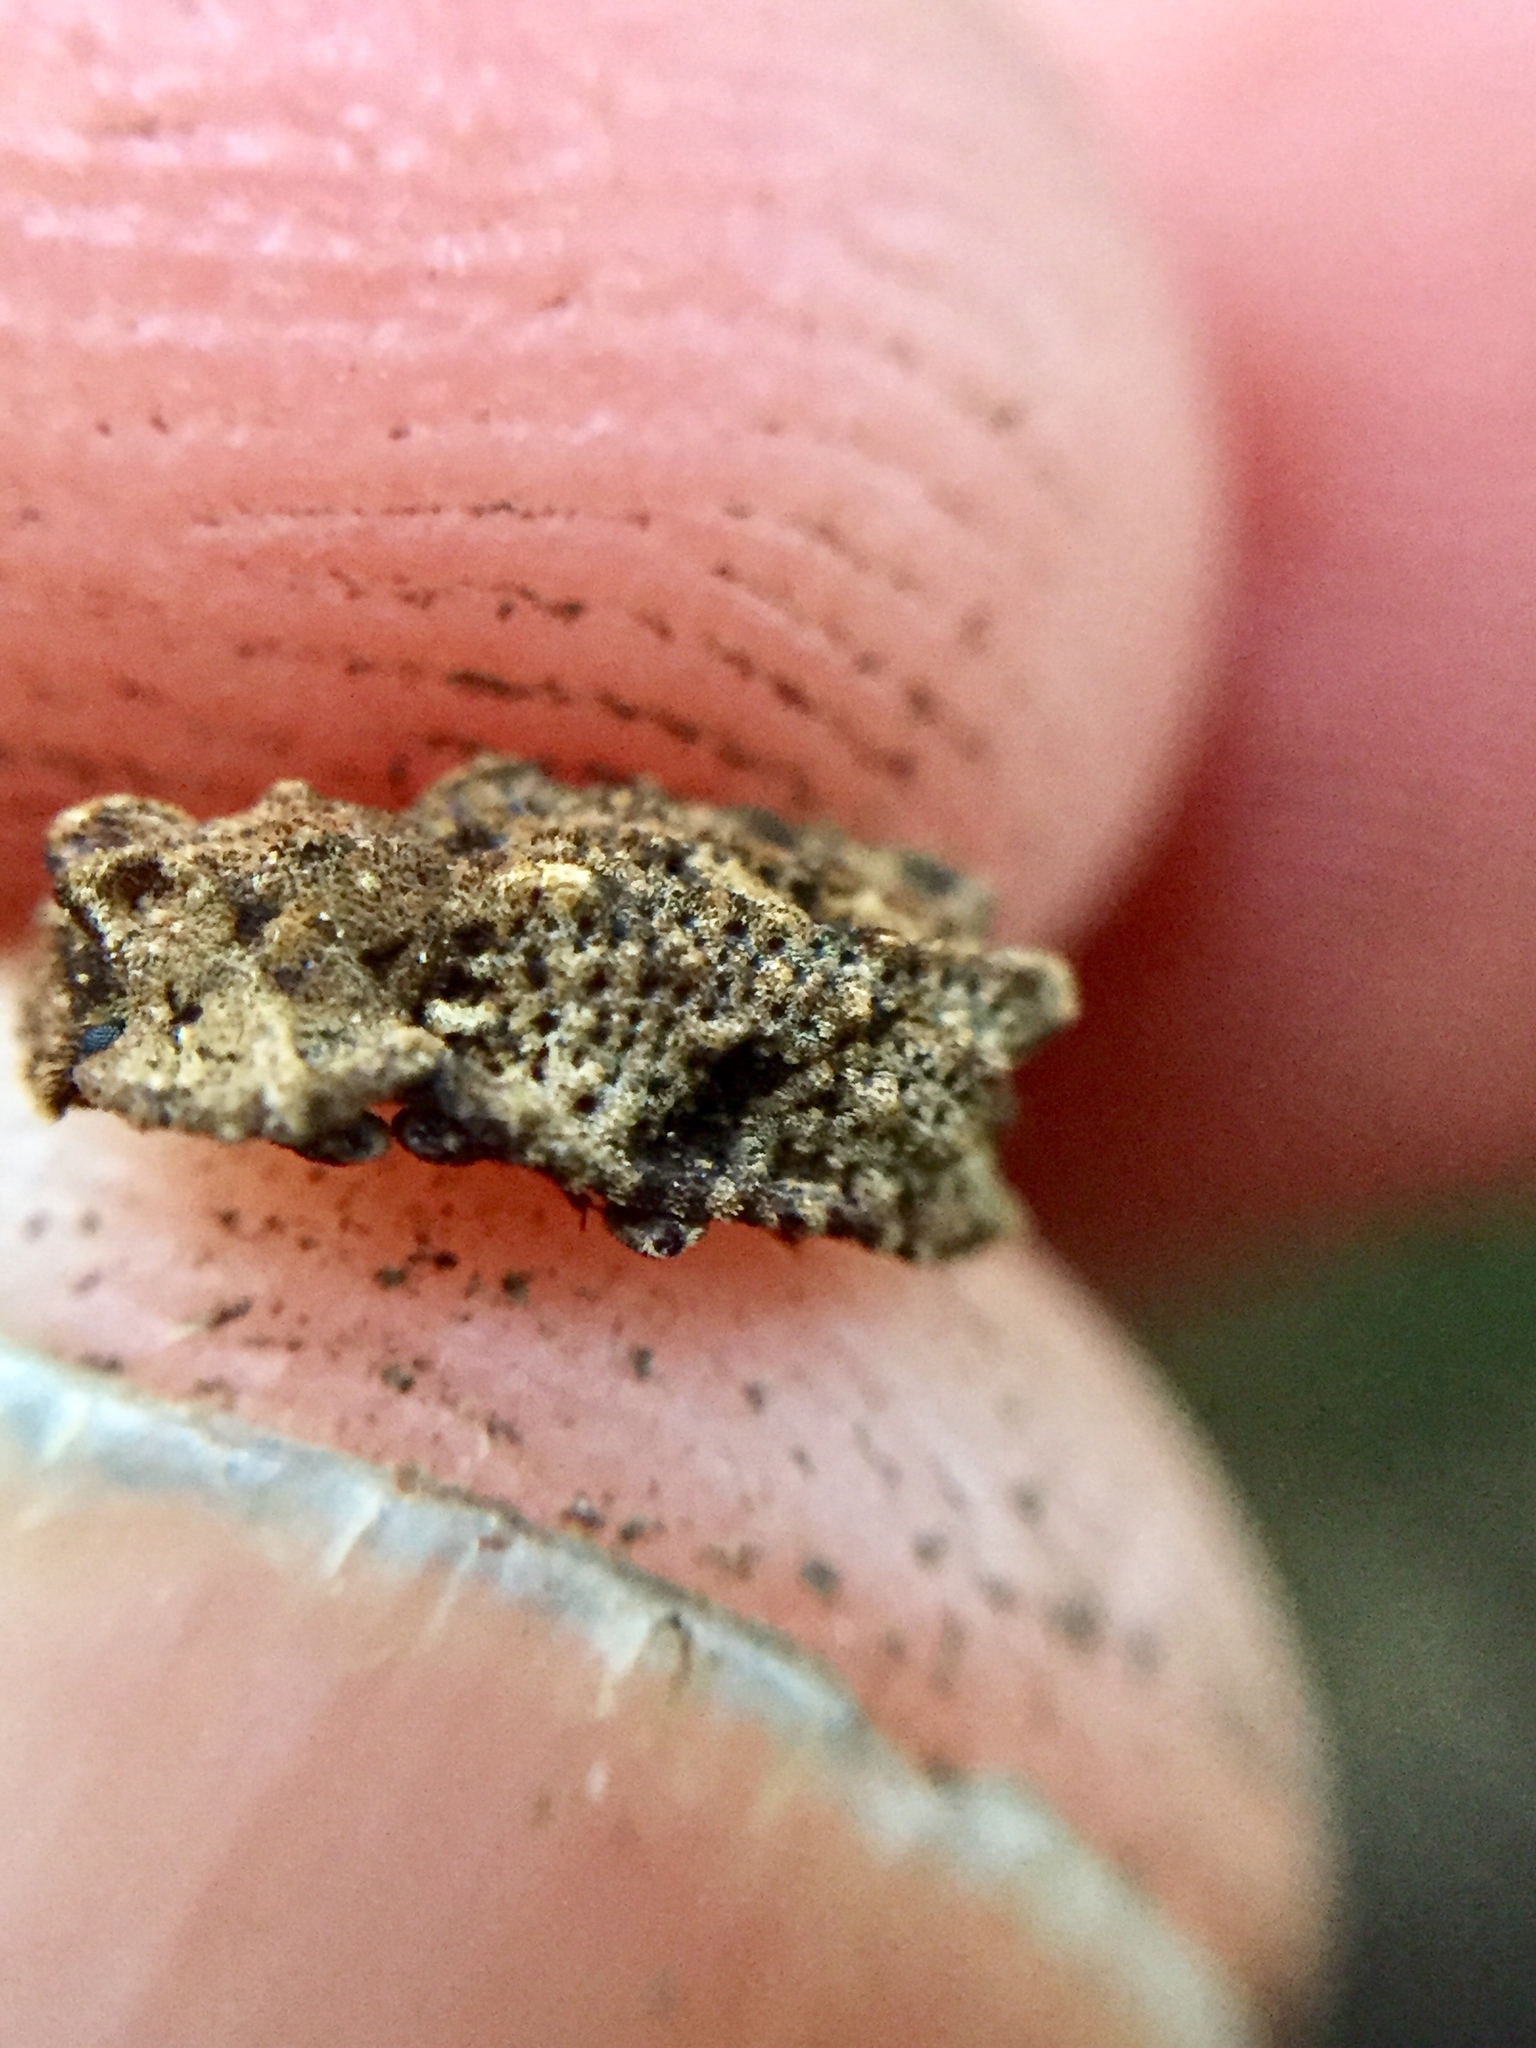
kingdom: Animalia
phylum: Arthropoda
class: Insecta
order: Coleoptera
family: Zopheridae
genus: Pristoderus
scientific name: Pristoderus
